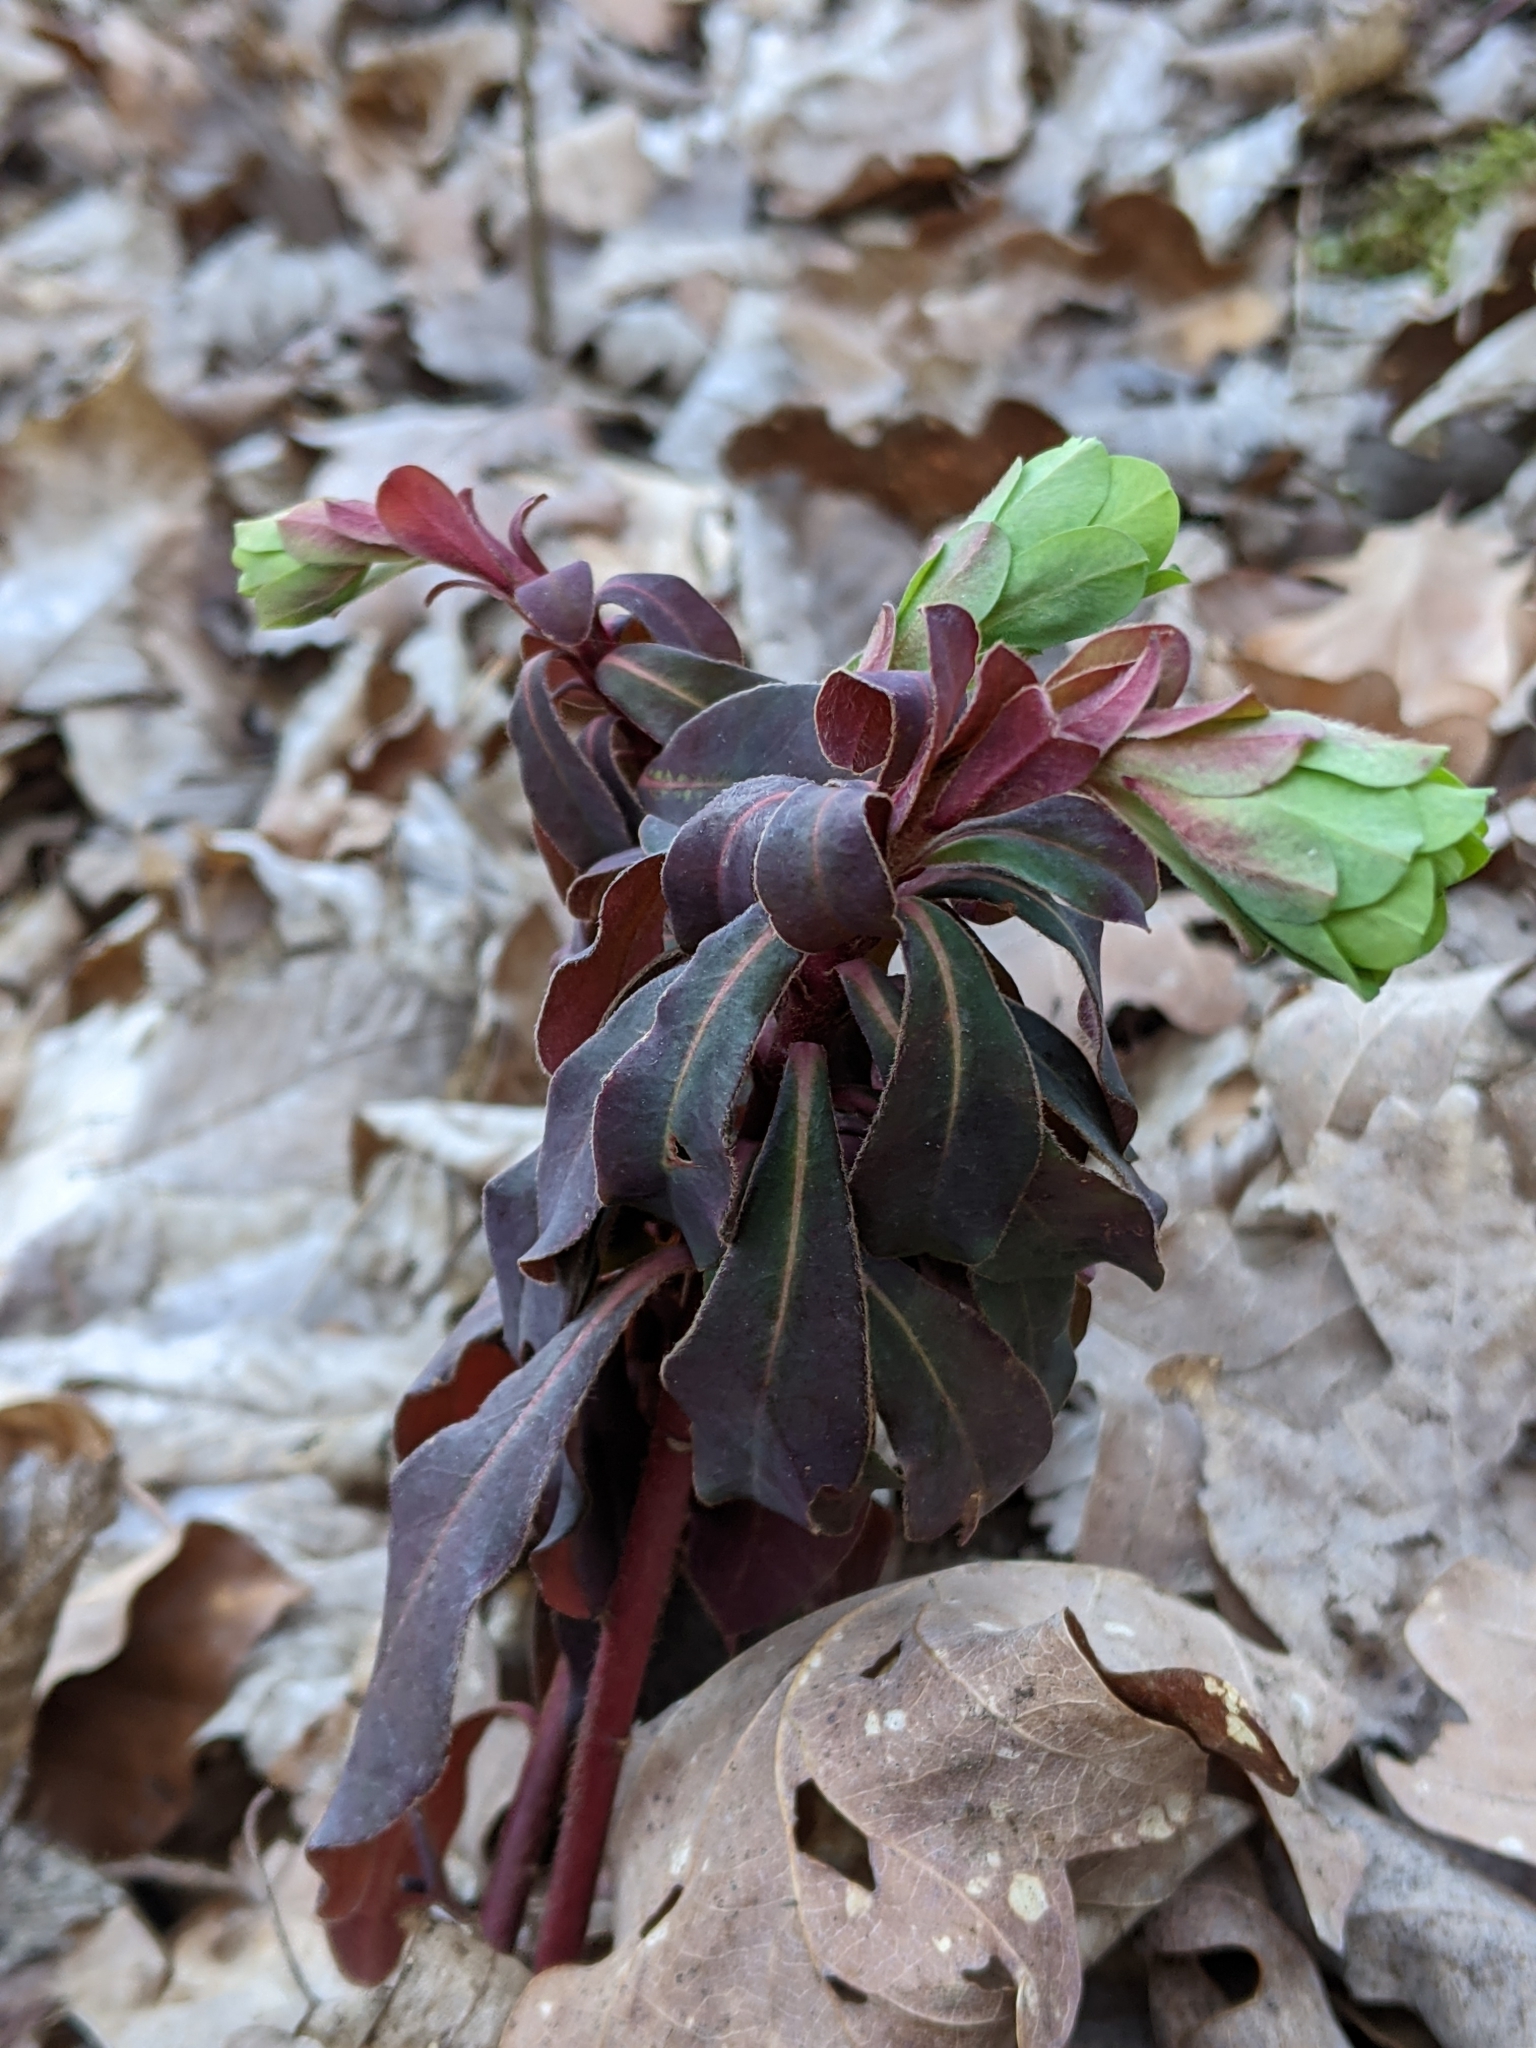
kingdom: Plantae
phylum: Tracheophyta
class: Magnoliopsida
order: Malpighiales
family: Euphorbiaceae
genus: Euphorbia
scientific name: Euphorbia amygdaloides
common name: Wood spurge
